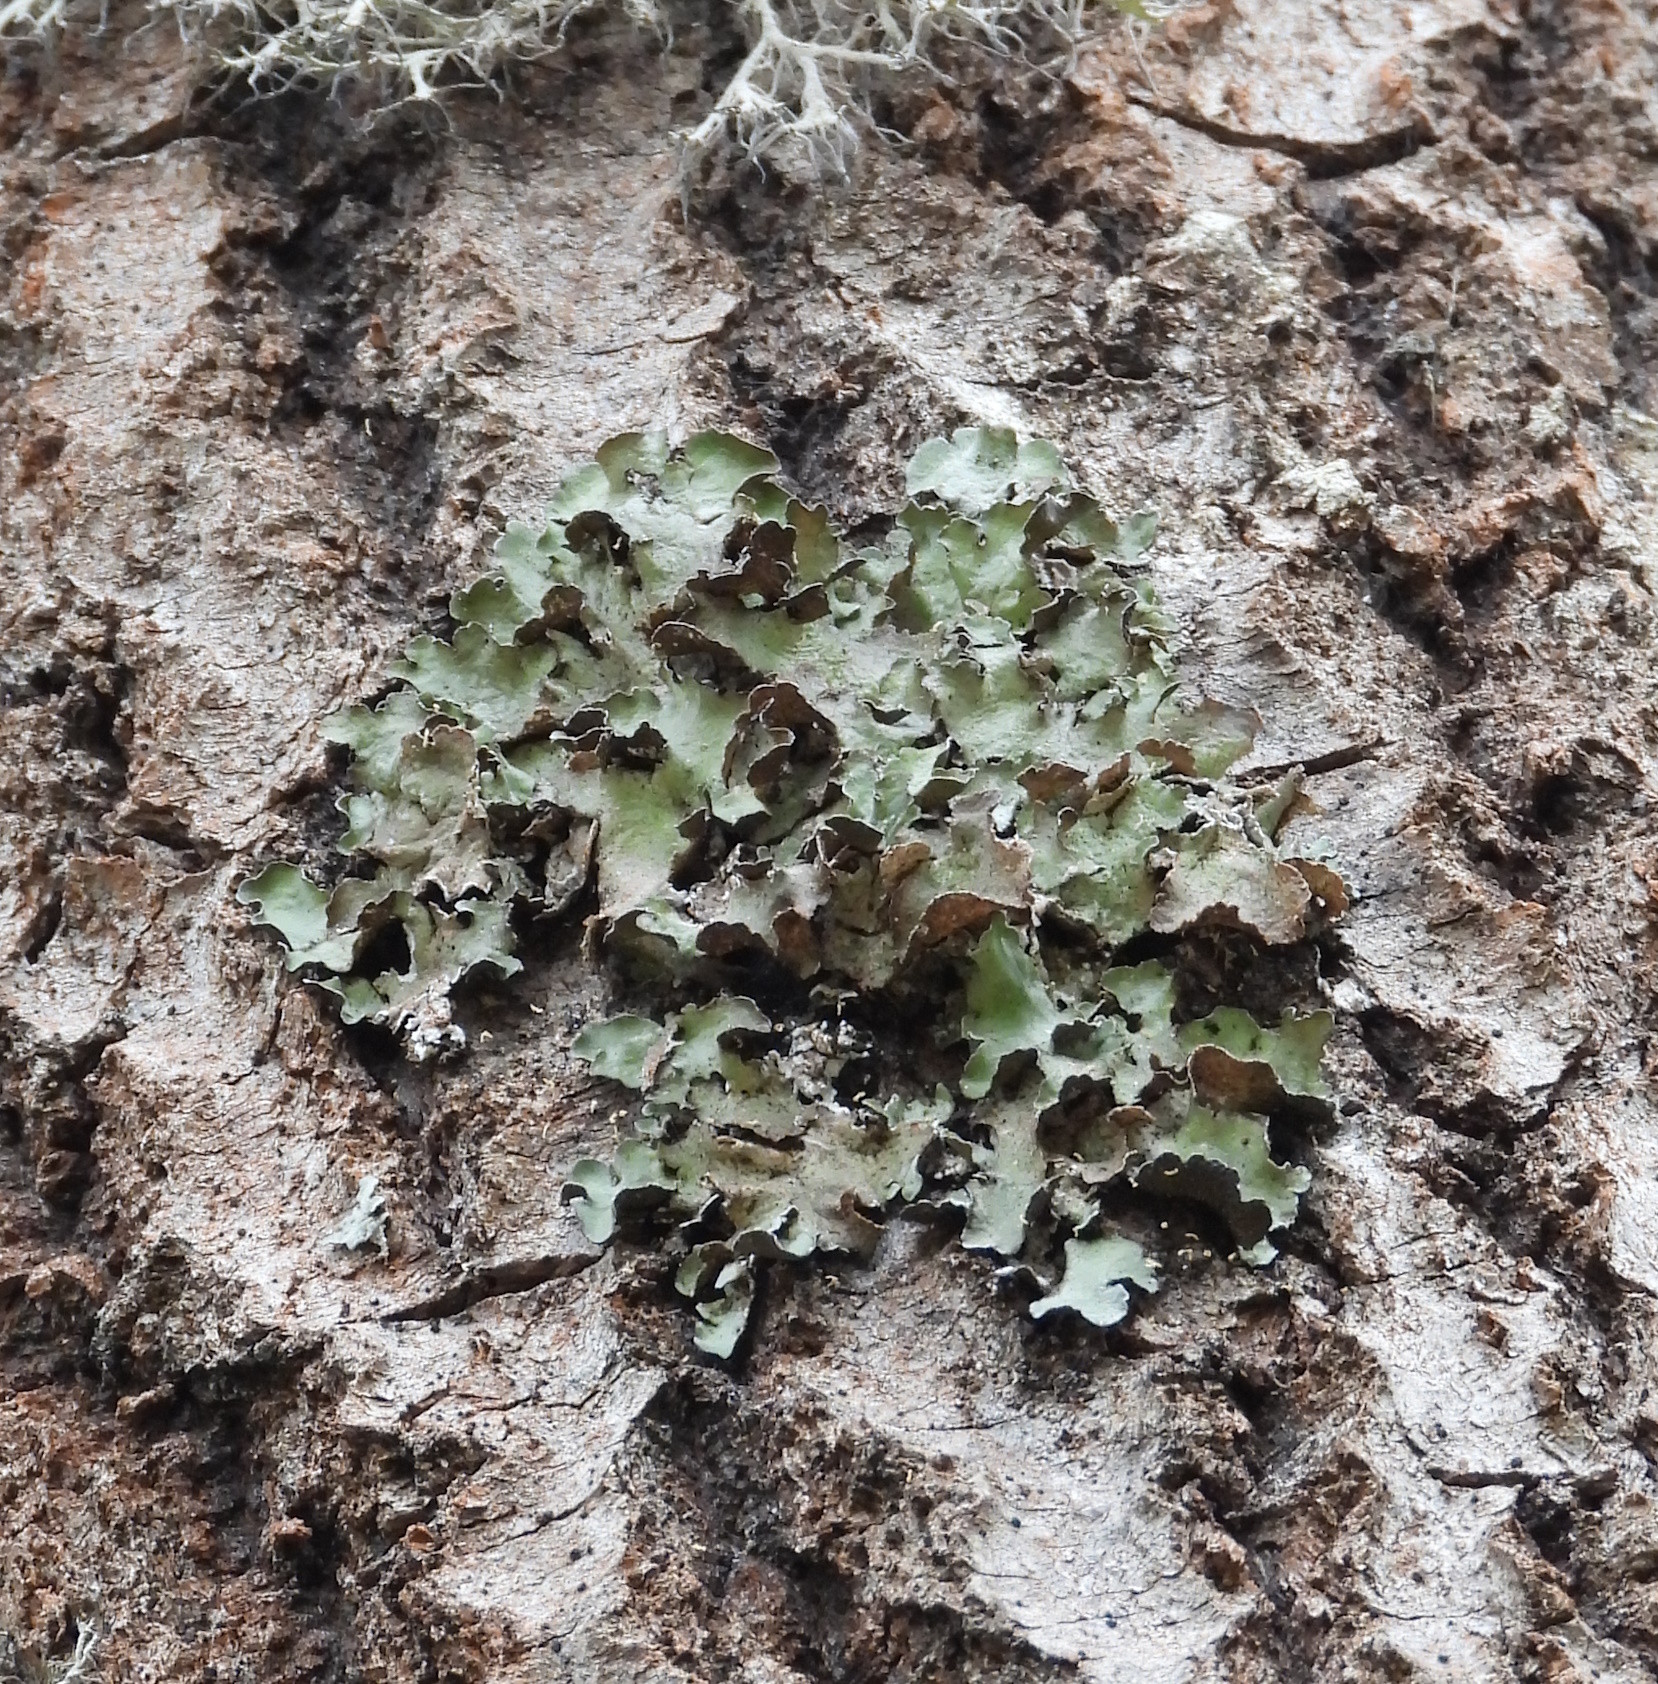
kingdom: Fungi
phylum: Ascomycota
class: Lecanoromycetes
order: Lecanorales
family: Parmeliaceae
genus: Pleurosticta
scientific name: Pleurosticta acetabulum
